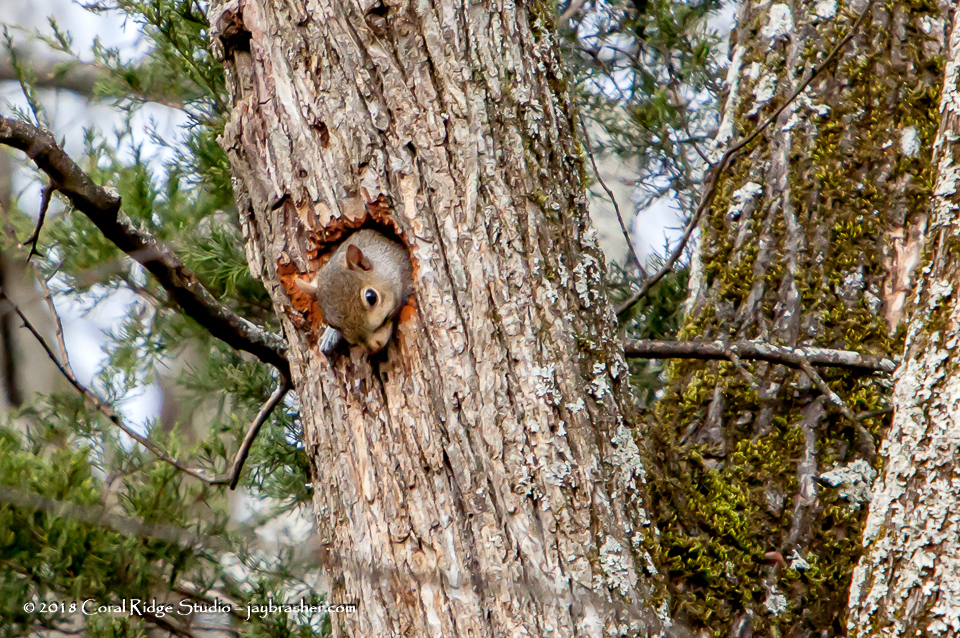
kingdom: Animalia
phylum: Chordata
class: Mammalia
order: Rodentia
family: Sciuridae
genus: Sciurus
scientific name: Sciurus carolinensis
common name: Eastern gray squirrel
